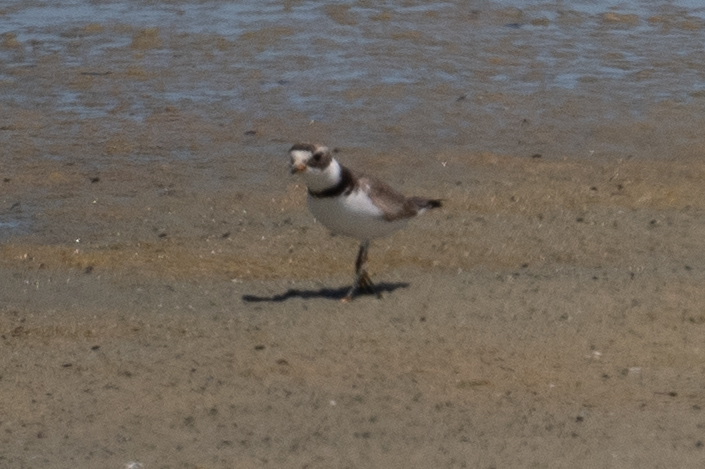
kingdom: Animalia
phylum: Chordata
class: Aves
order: Charadriiformes
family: Charadriidae
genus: Charadrius
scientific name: Charadrius semipalmatus
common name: Semipalmated plover
